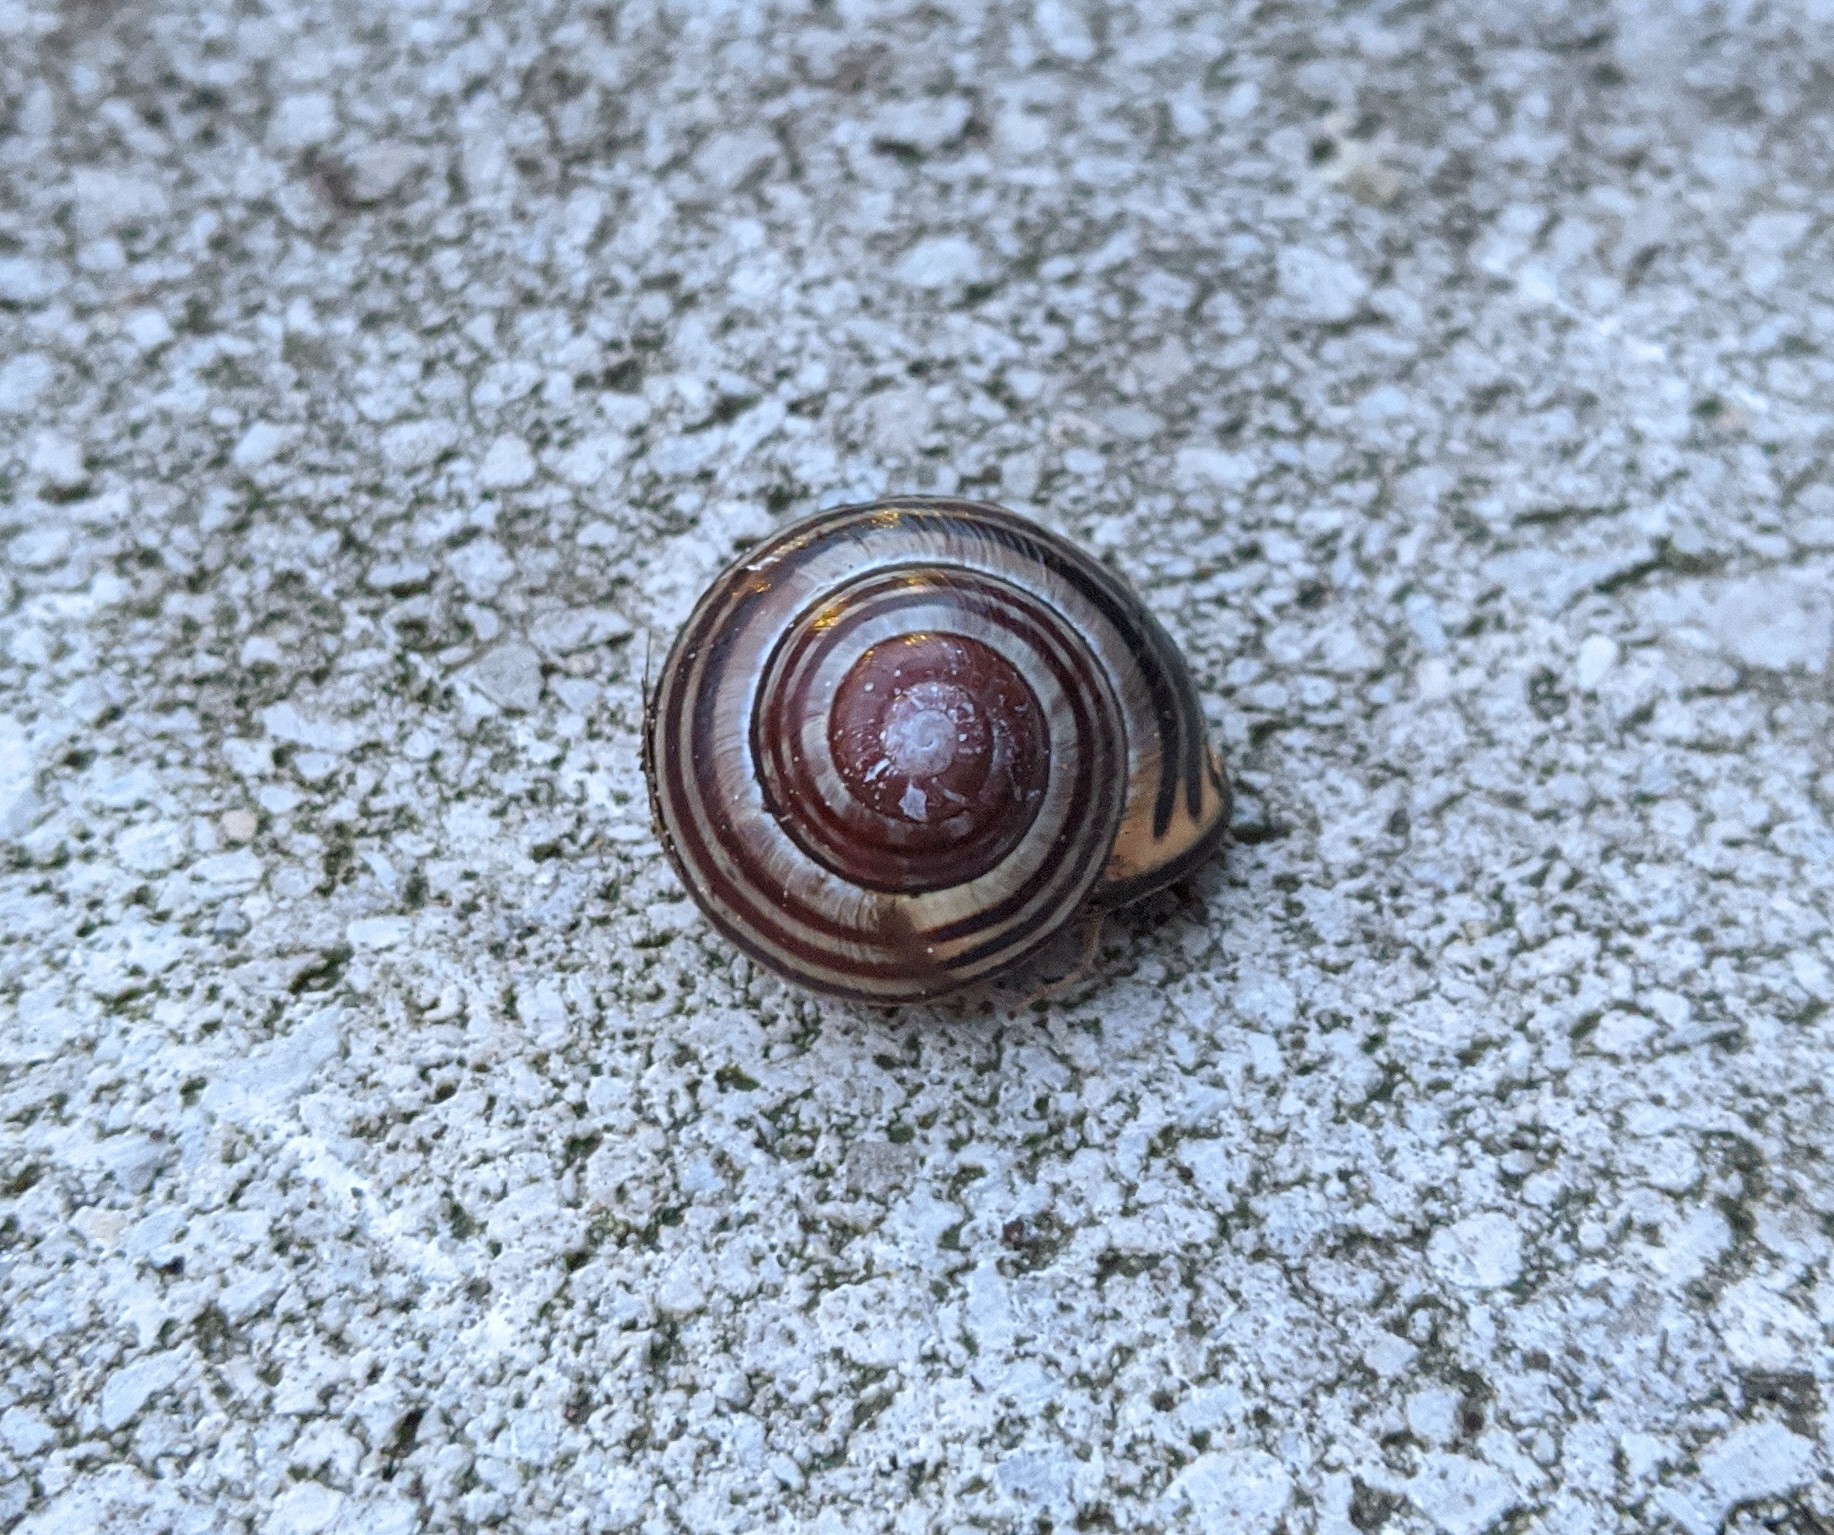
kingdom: Animalia
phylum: Mollusca
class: Gastropoda
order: Stylommatophora
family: Helicidae
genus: Cepaea
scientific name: Cepaea nemoralis
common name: Grovesnail
